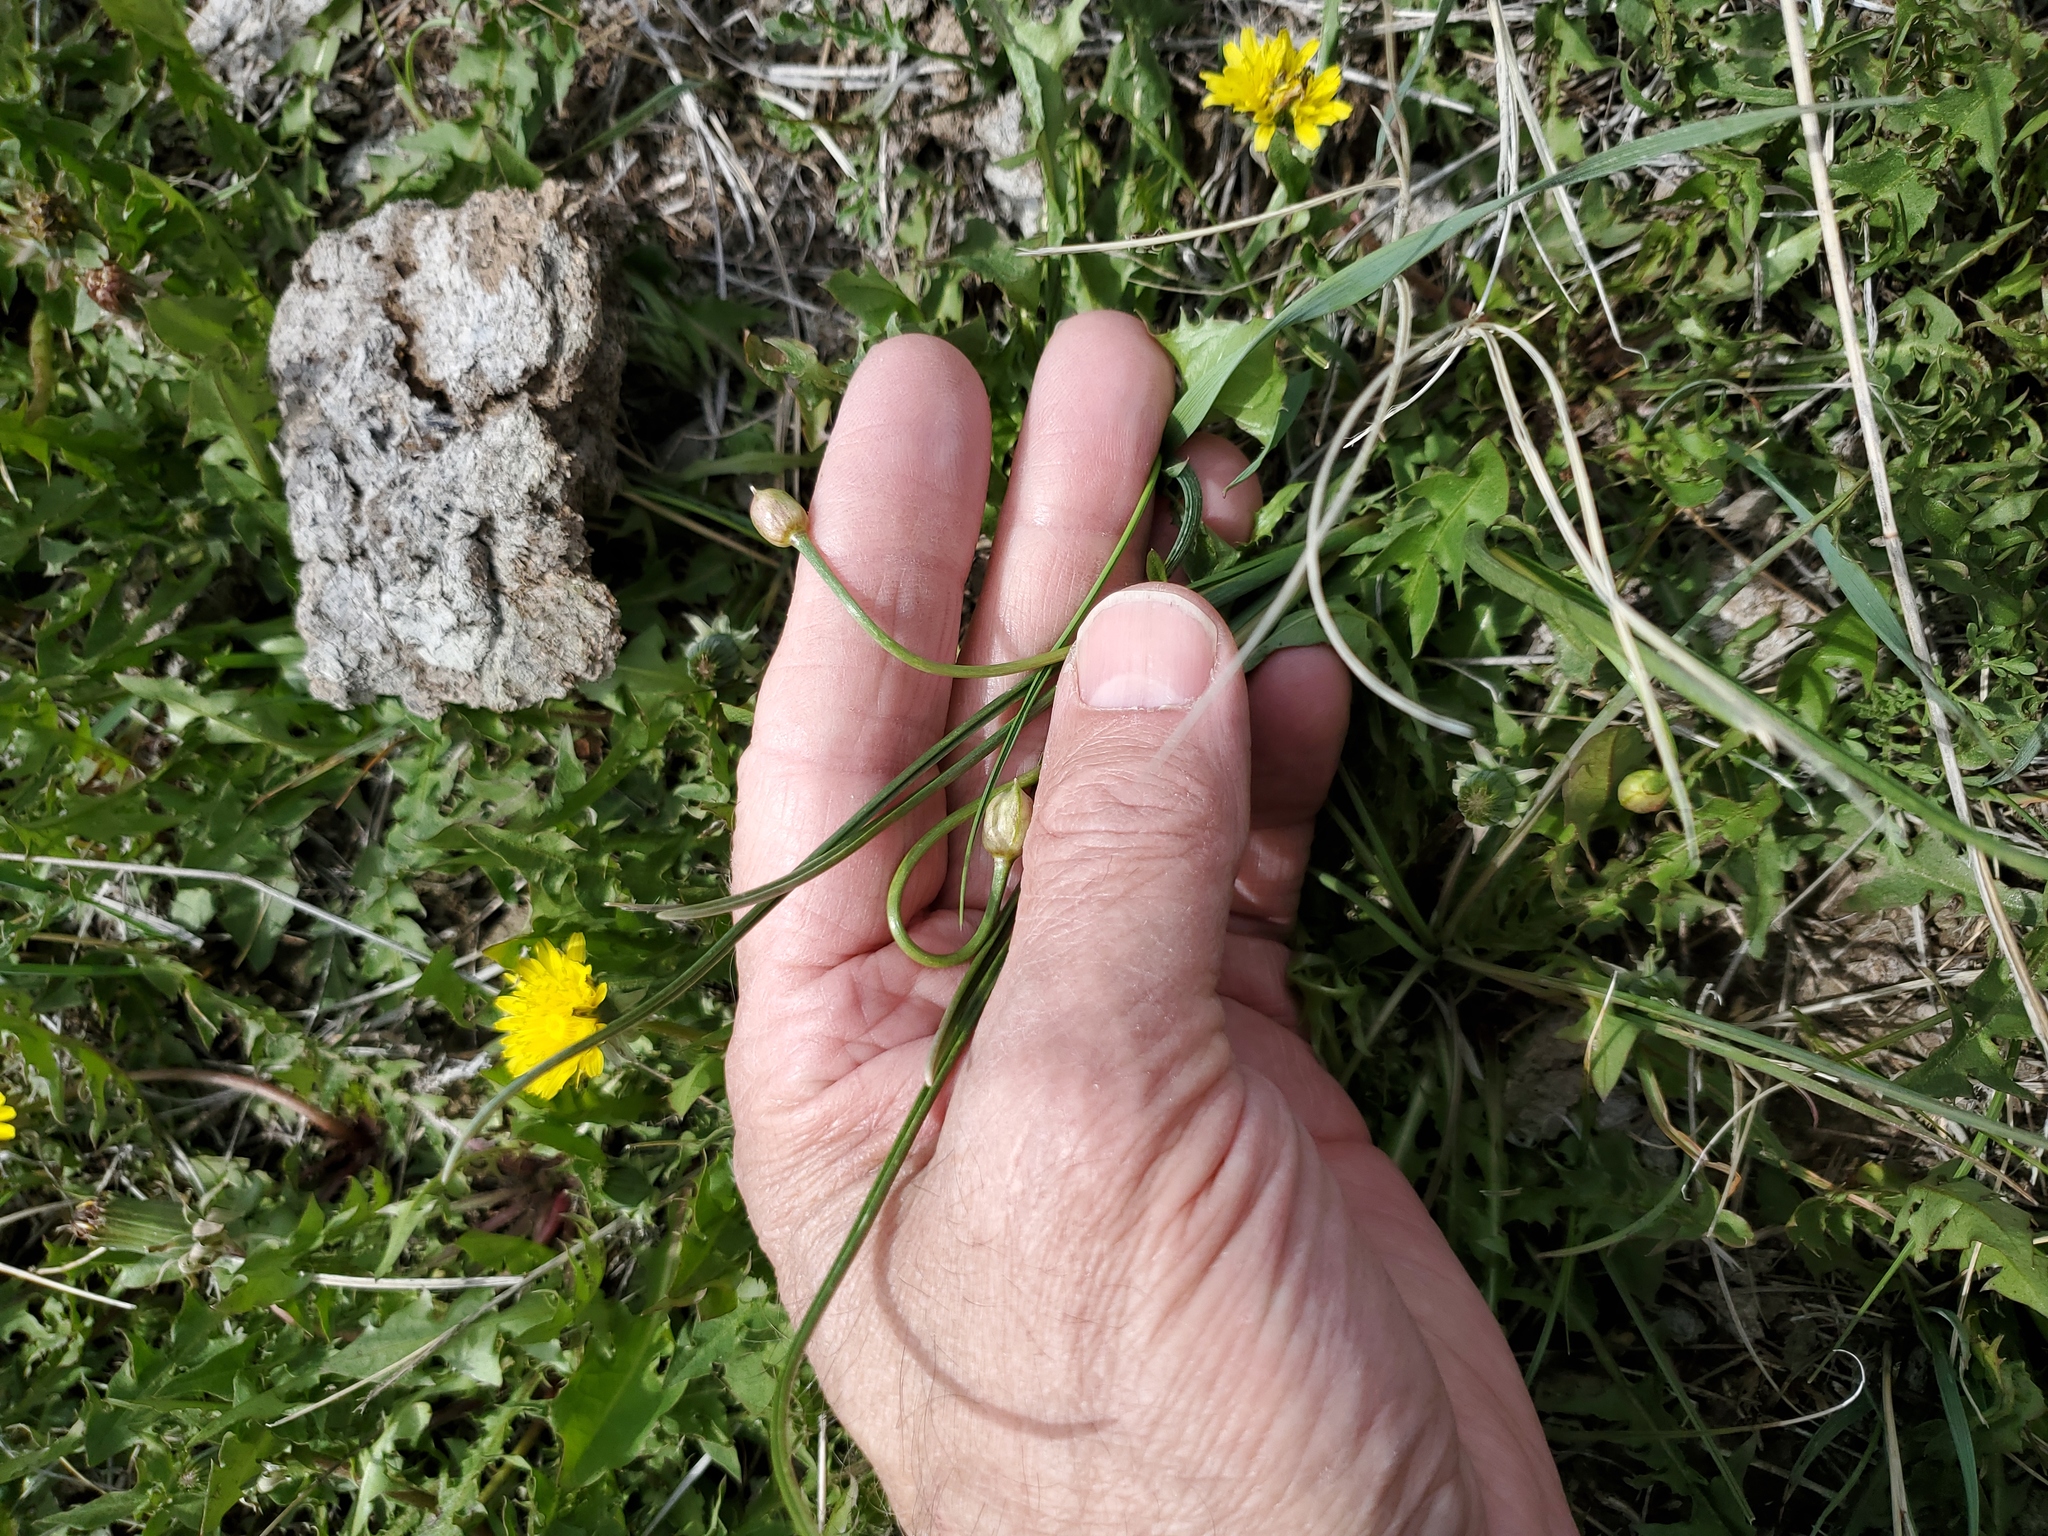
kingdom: Plantae
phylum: Tracheophyta
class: Liliopsida
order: Asparagales
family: Amaryllidaceae
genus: Allium
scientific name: Allium textile
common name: Prairie onion
